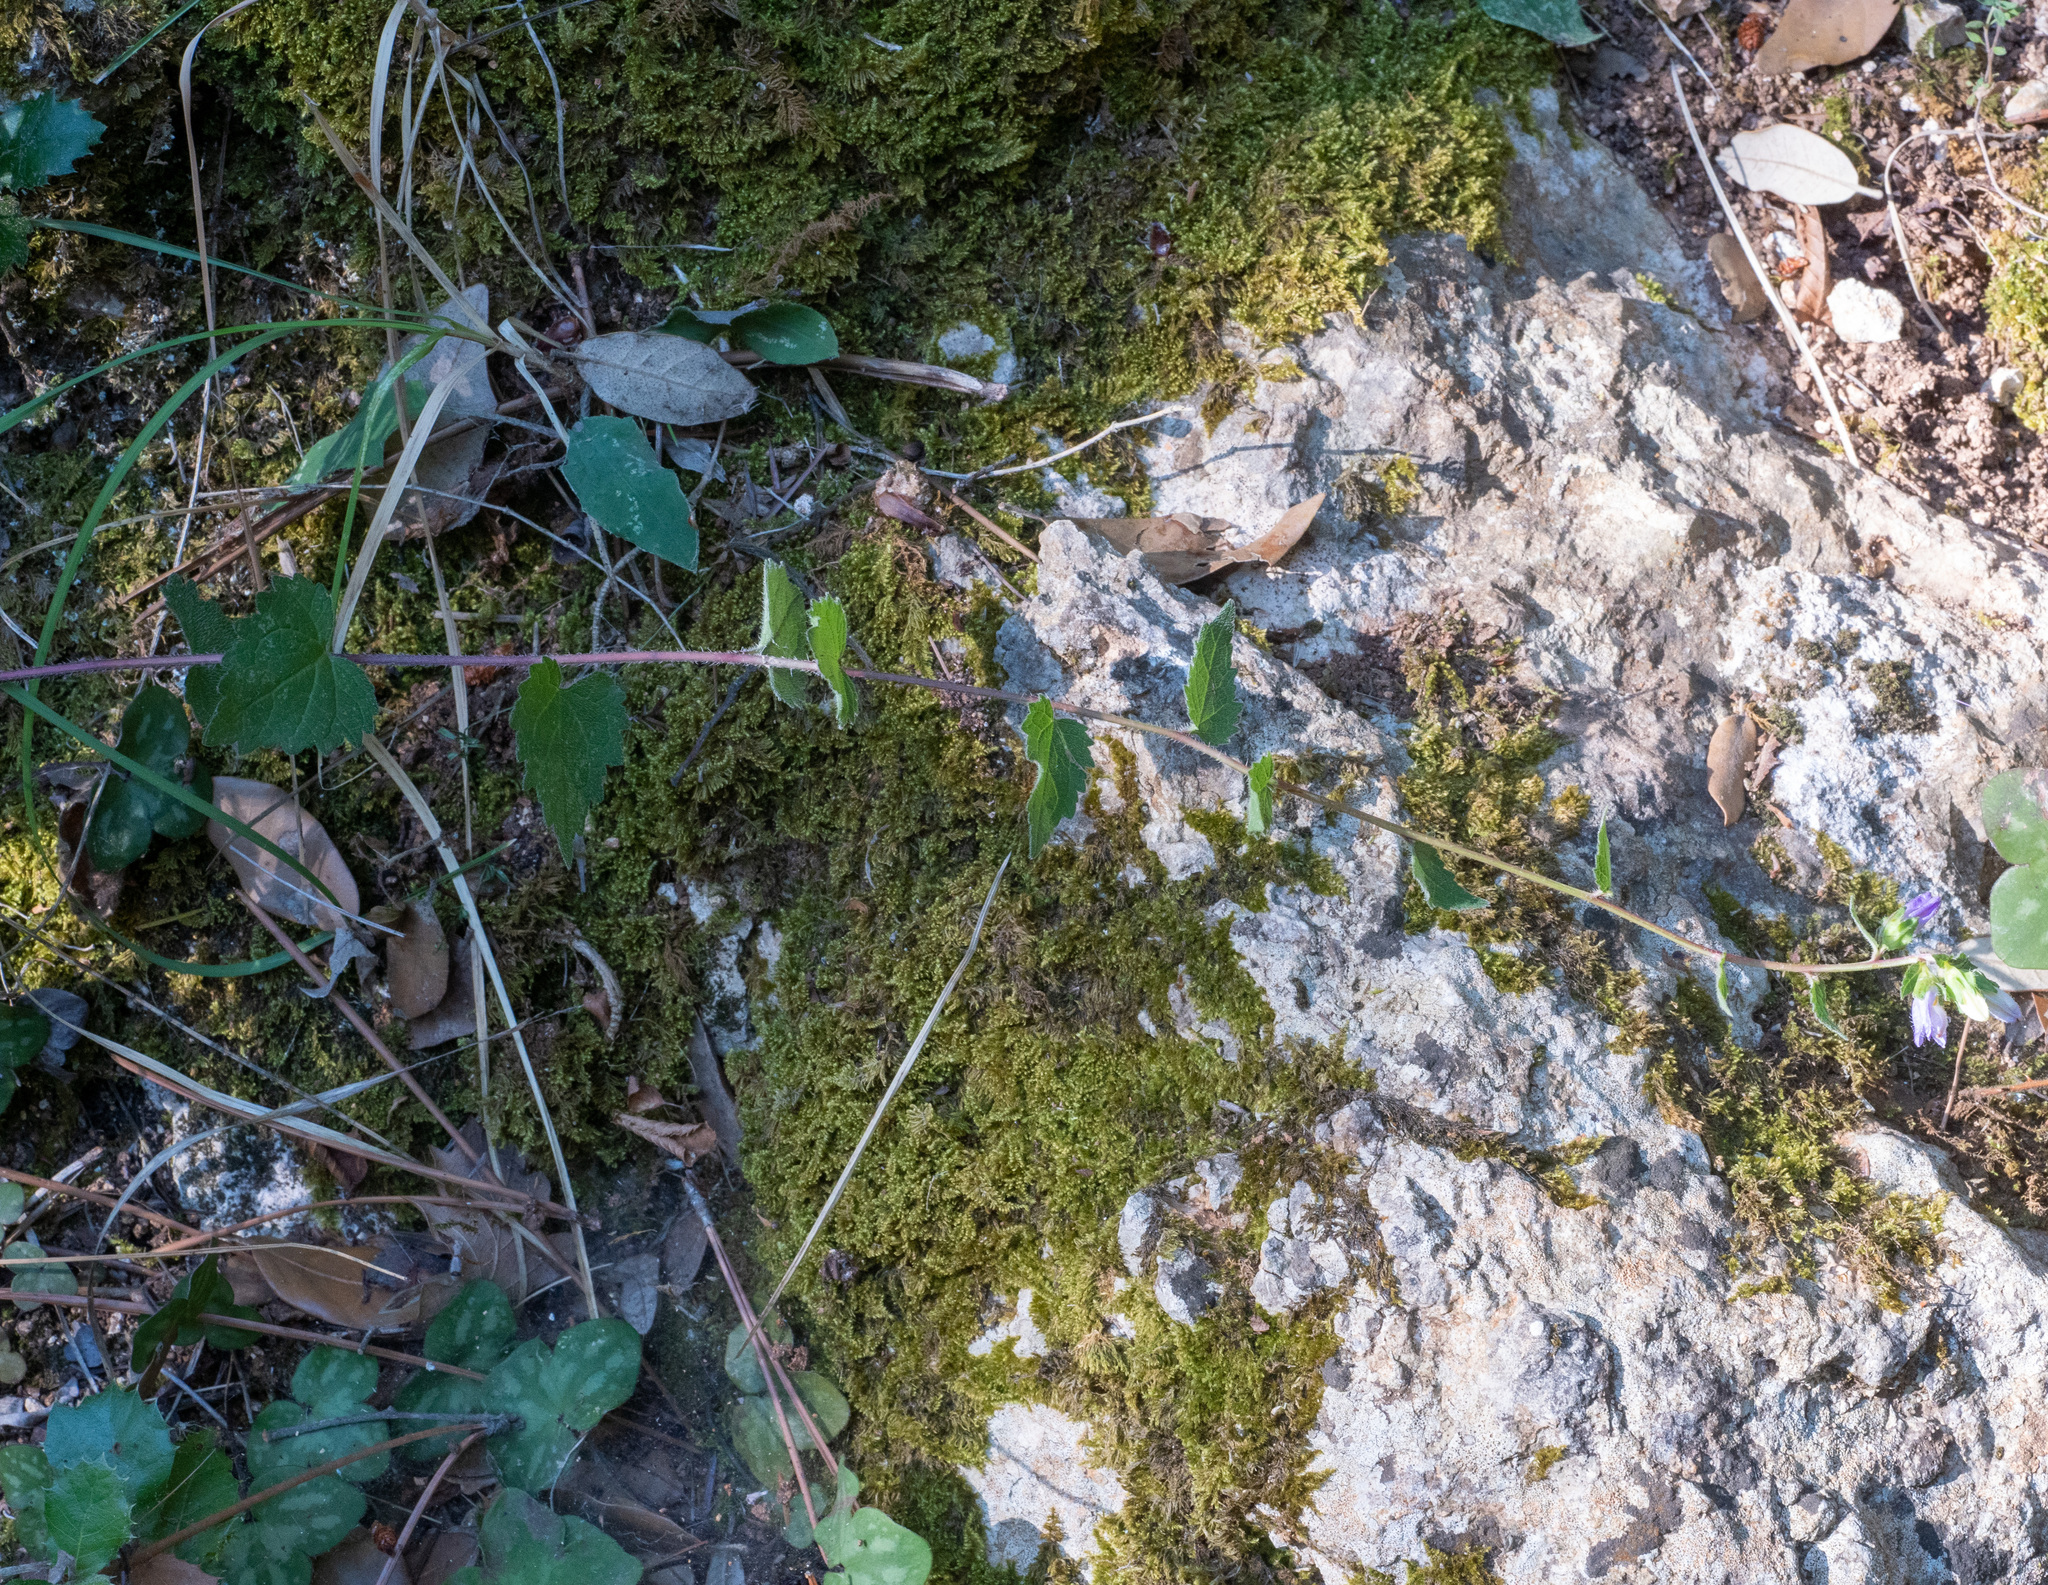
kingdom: Plantae
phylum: Tracheophyta
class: Magnoliopsida
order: Asterales
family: Campanulaceae
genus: Campanula
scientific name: Campanula trachelium
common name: Nettle-leaved bellflower
